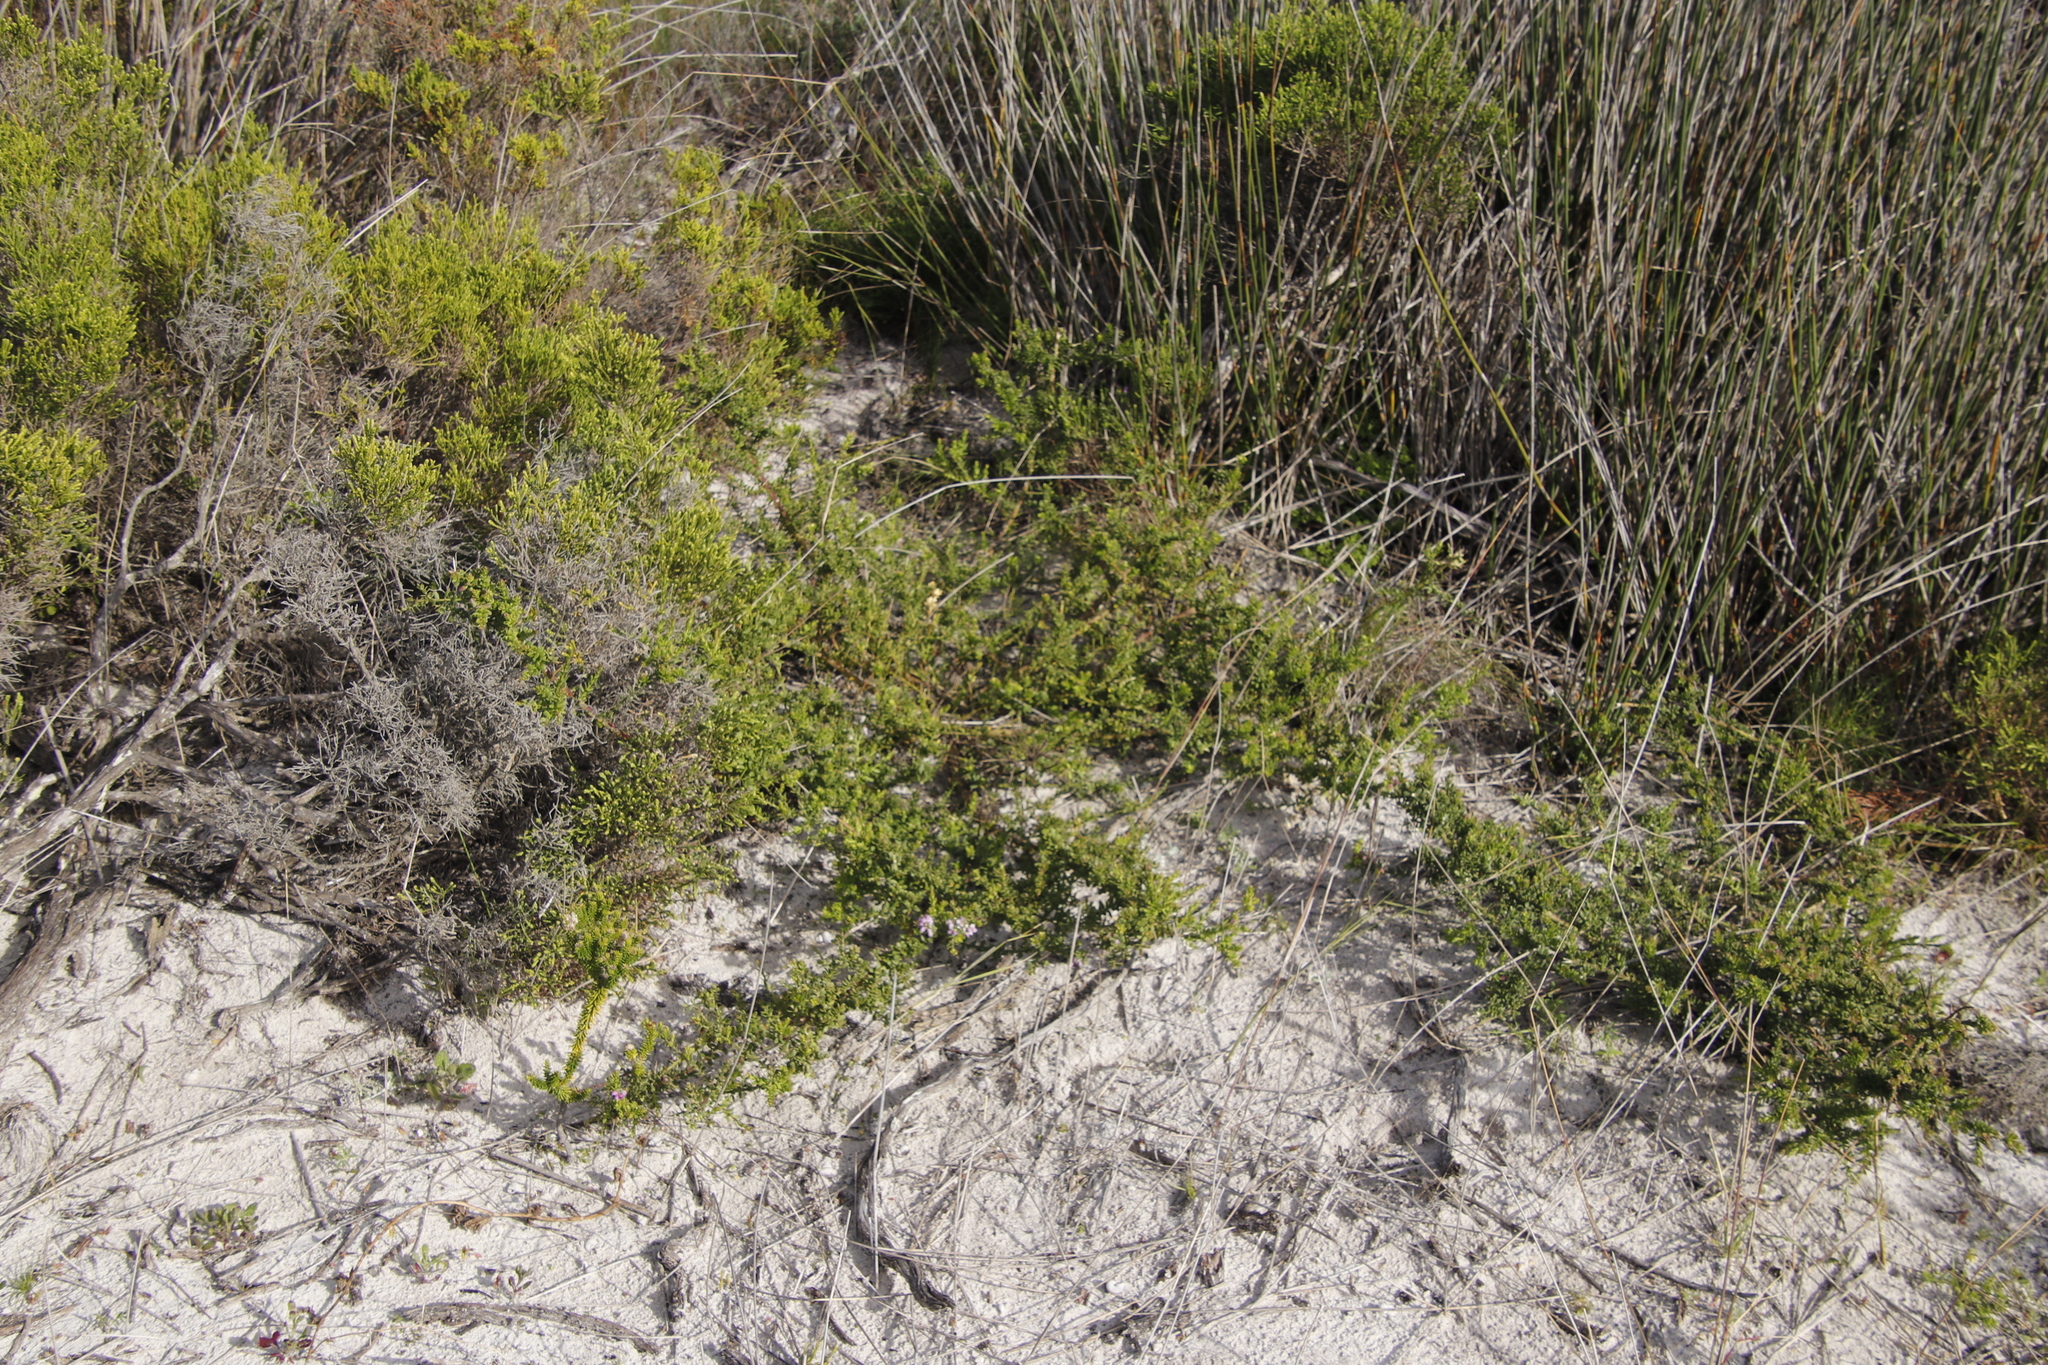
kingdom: Plantae
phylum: Tracheophyta
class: Magnoliopsida
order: Fabales
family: Polygalaceae
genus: Muraltia
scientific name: Muraltia spinosa
